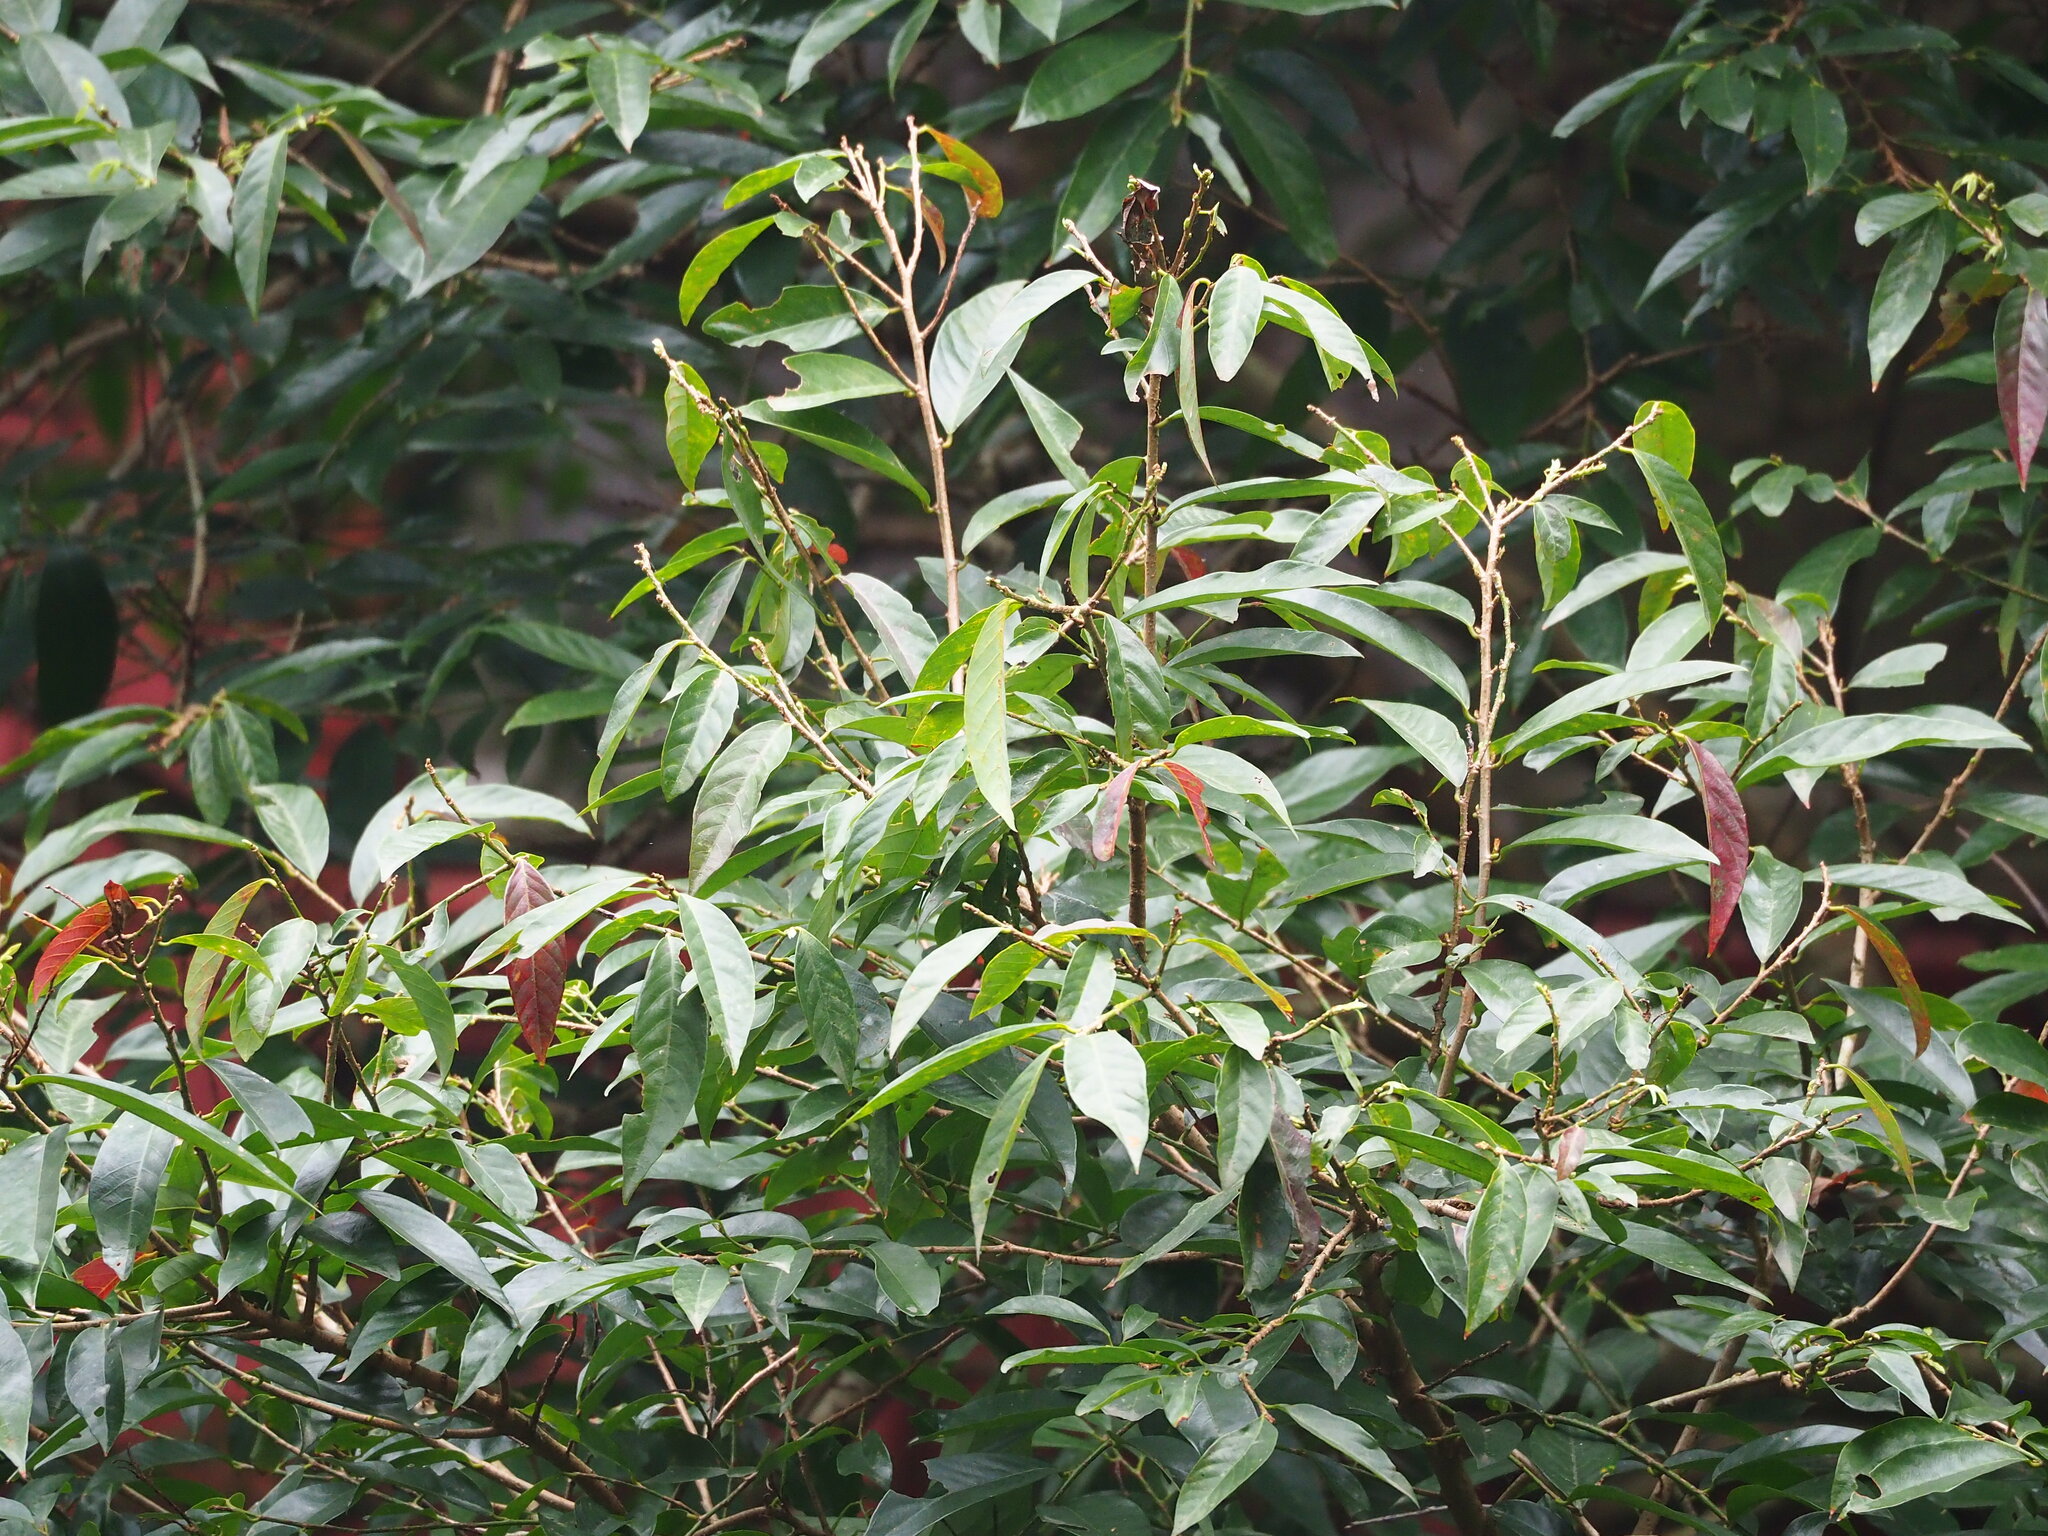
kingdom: Plantae
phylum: Tracheophyta
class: Magnoliopsida
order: Malpighiales
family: Phyllanthaceae
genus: Bridelia
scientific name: Bridelia balansae
